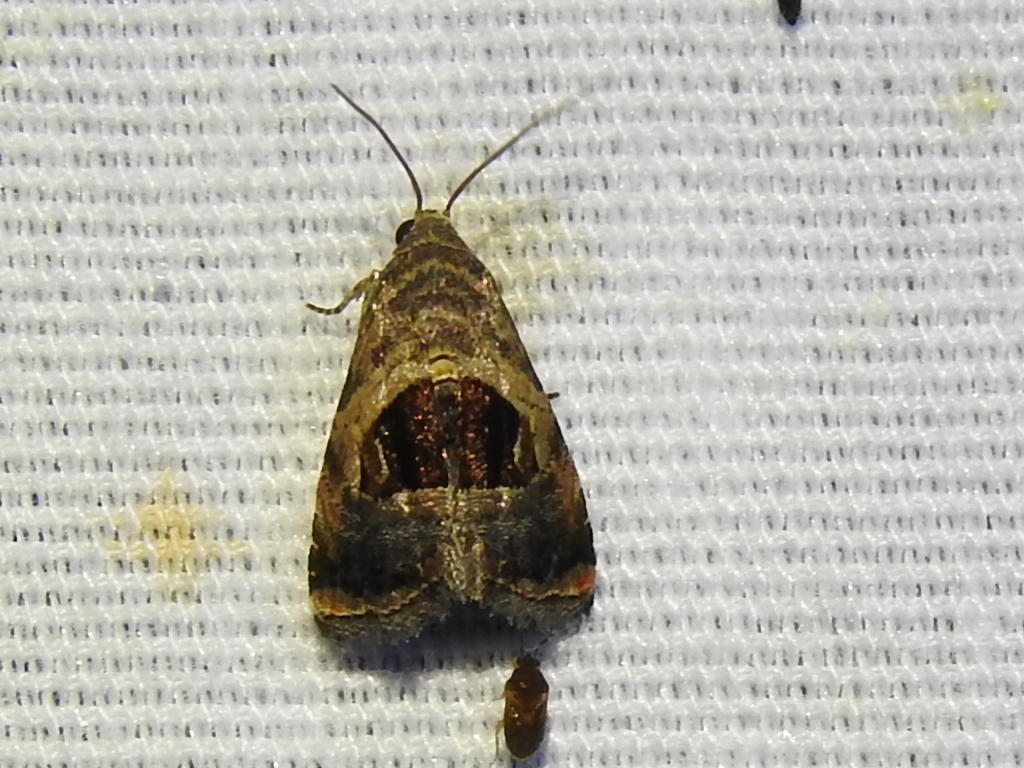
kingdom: Animalia
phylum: Arthropoda
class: Insecta
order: Lepidoptera
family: Noctuidae
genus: Tripudia
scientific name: Tripudia quadrifera
